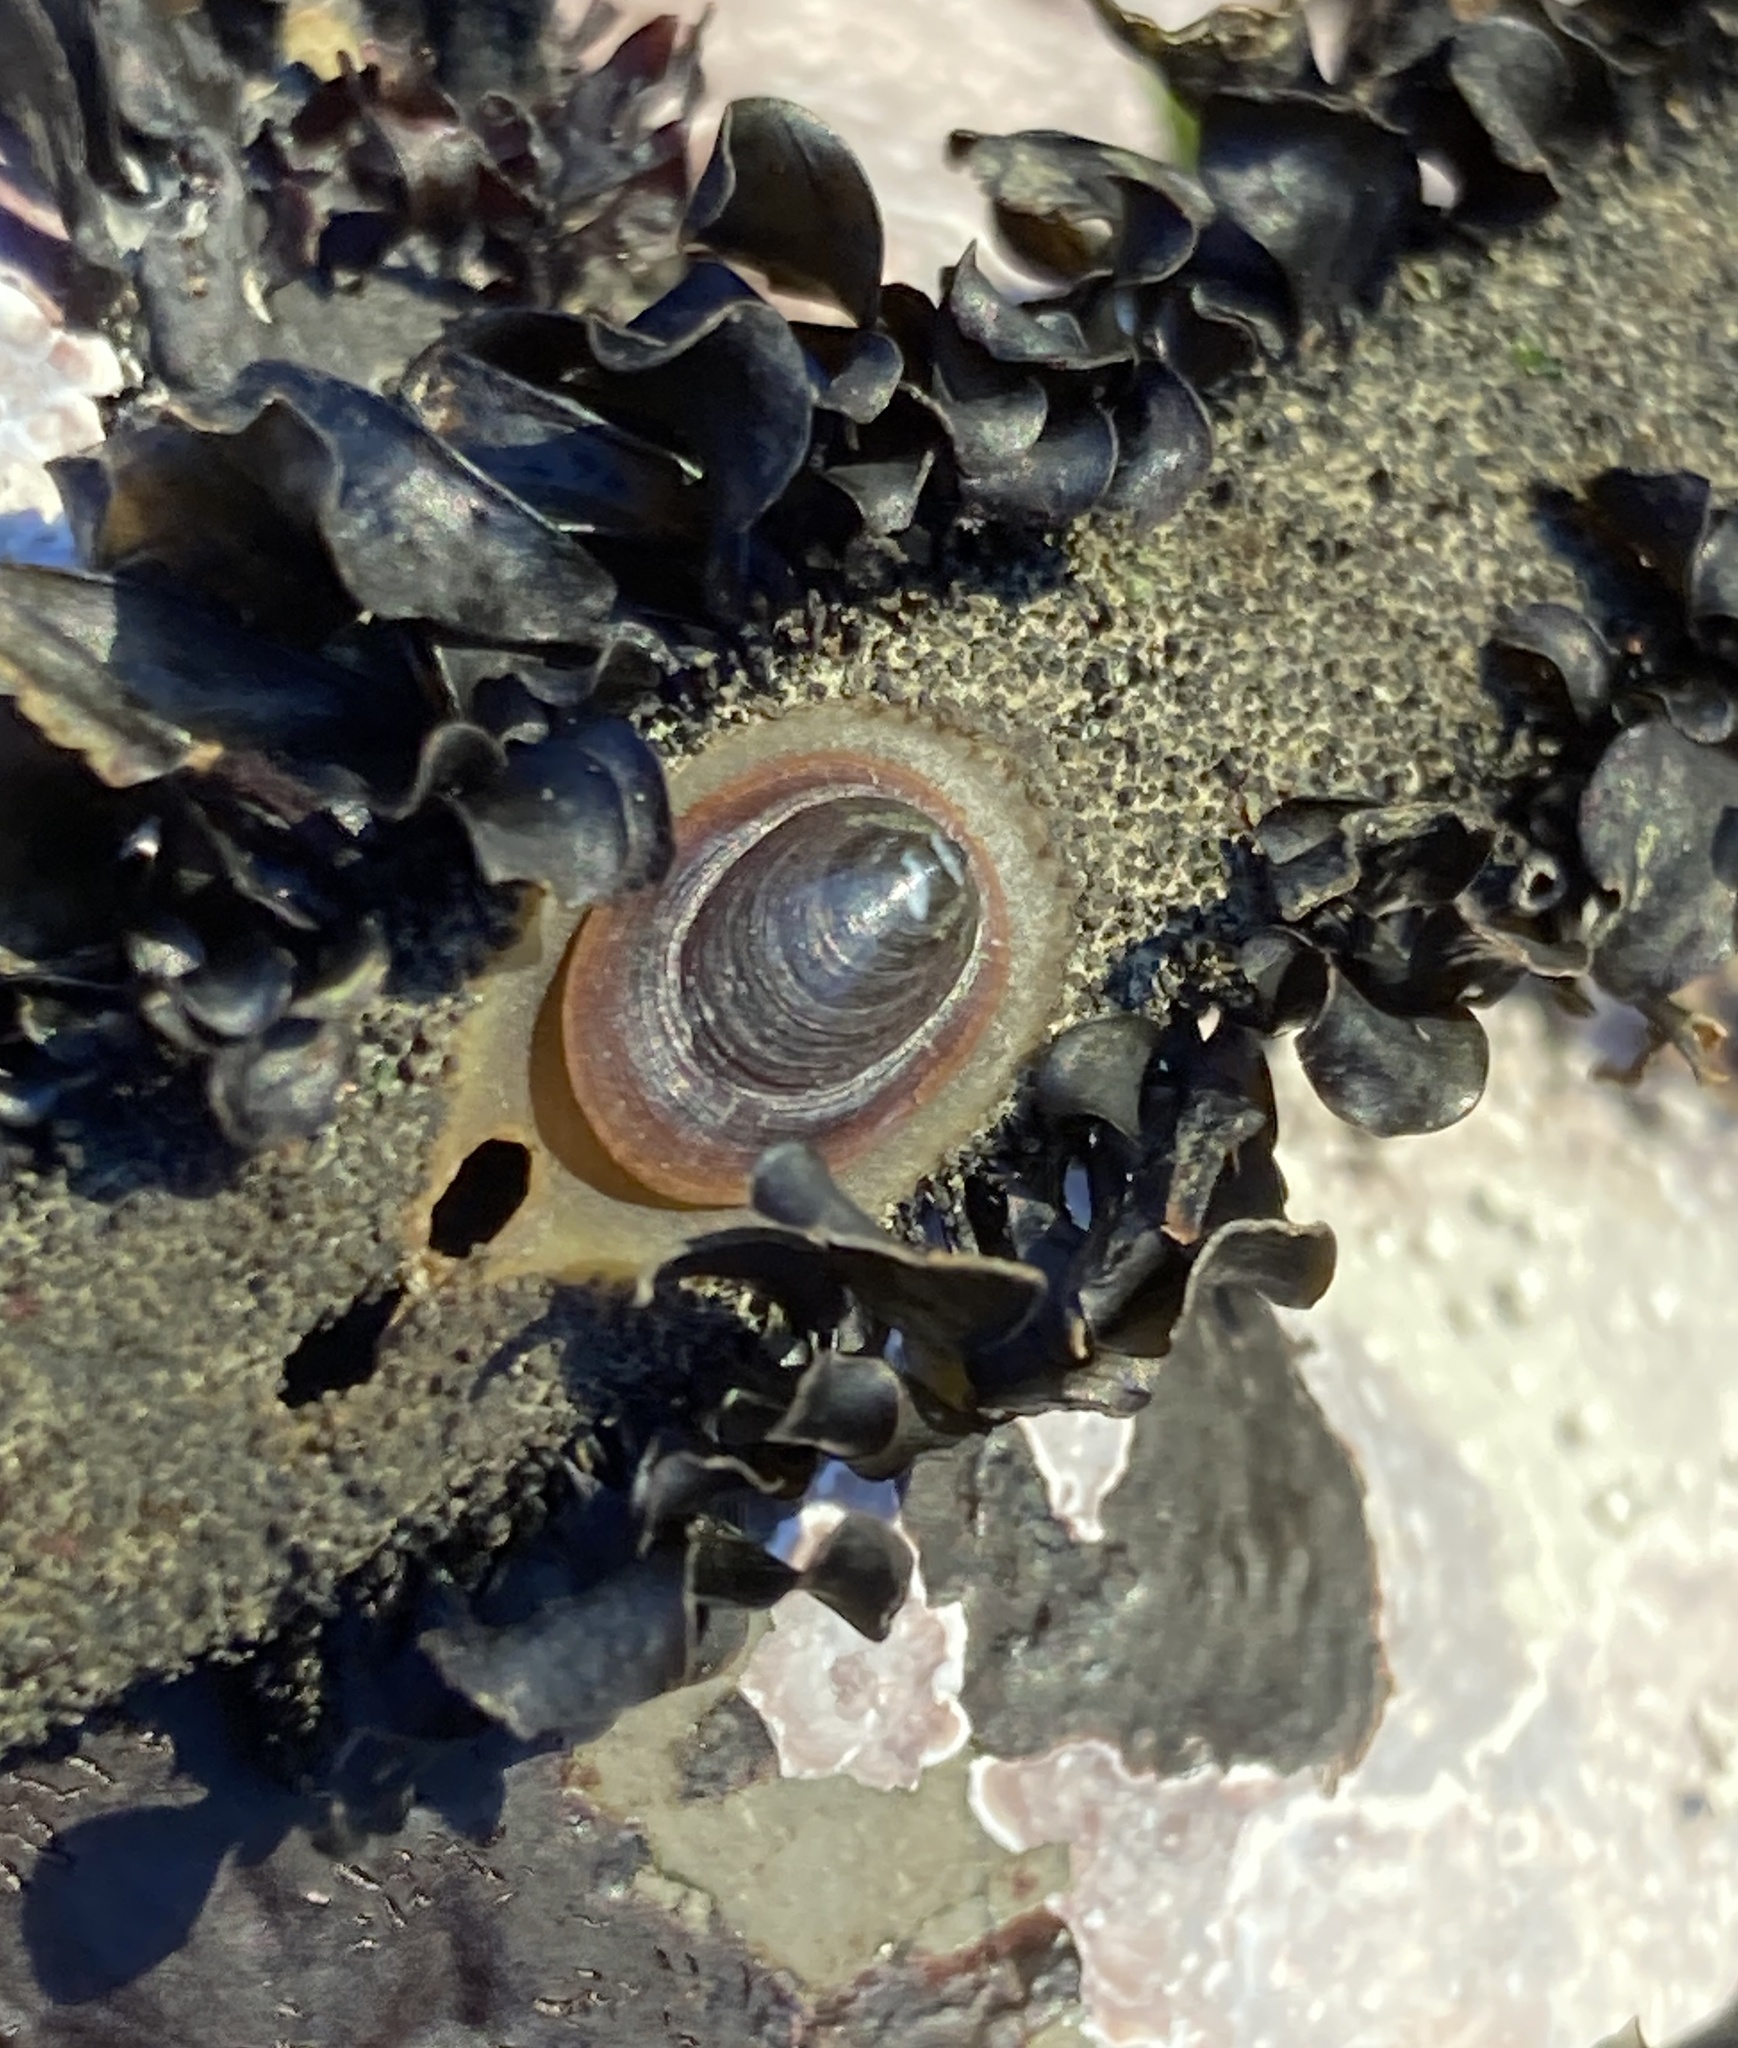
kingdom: Chromista
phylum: Ochrophyta
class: Phaeophyceae
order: Laminariales
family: Lessoniaceae
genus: Egregia
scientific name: Egregia menziesii
